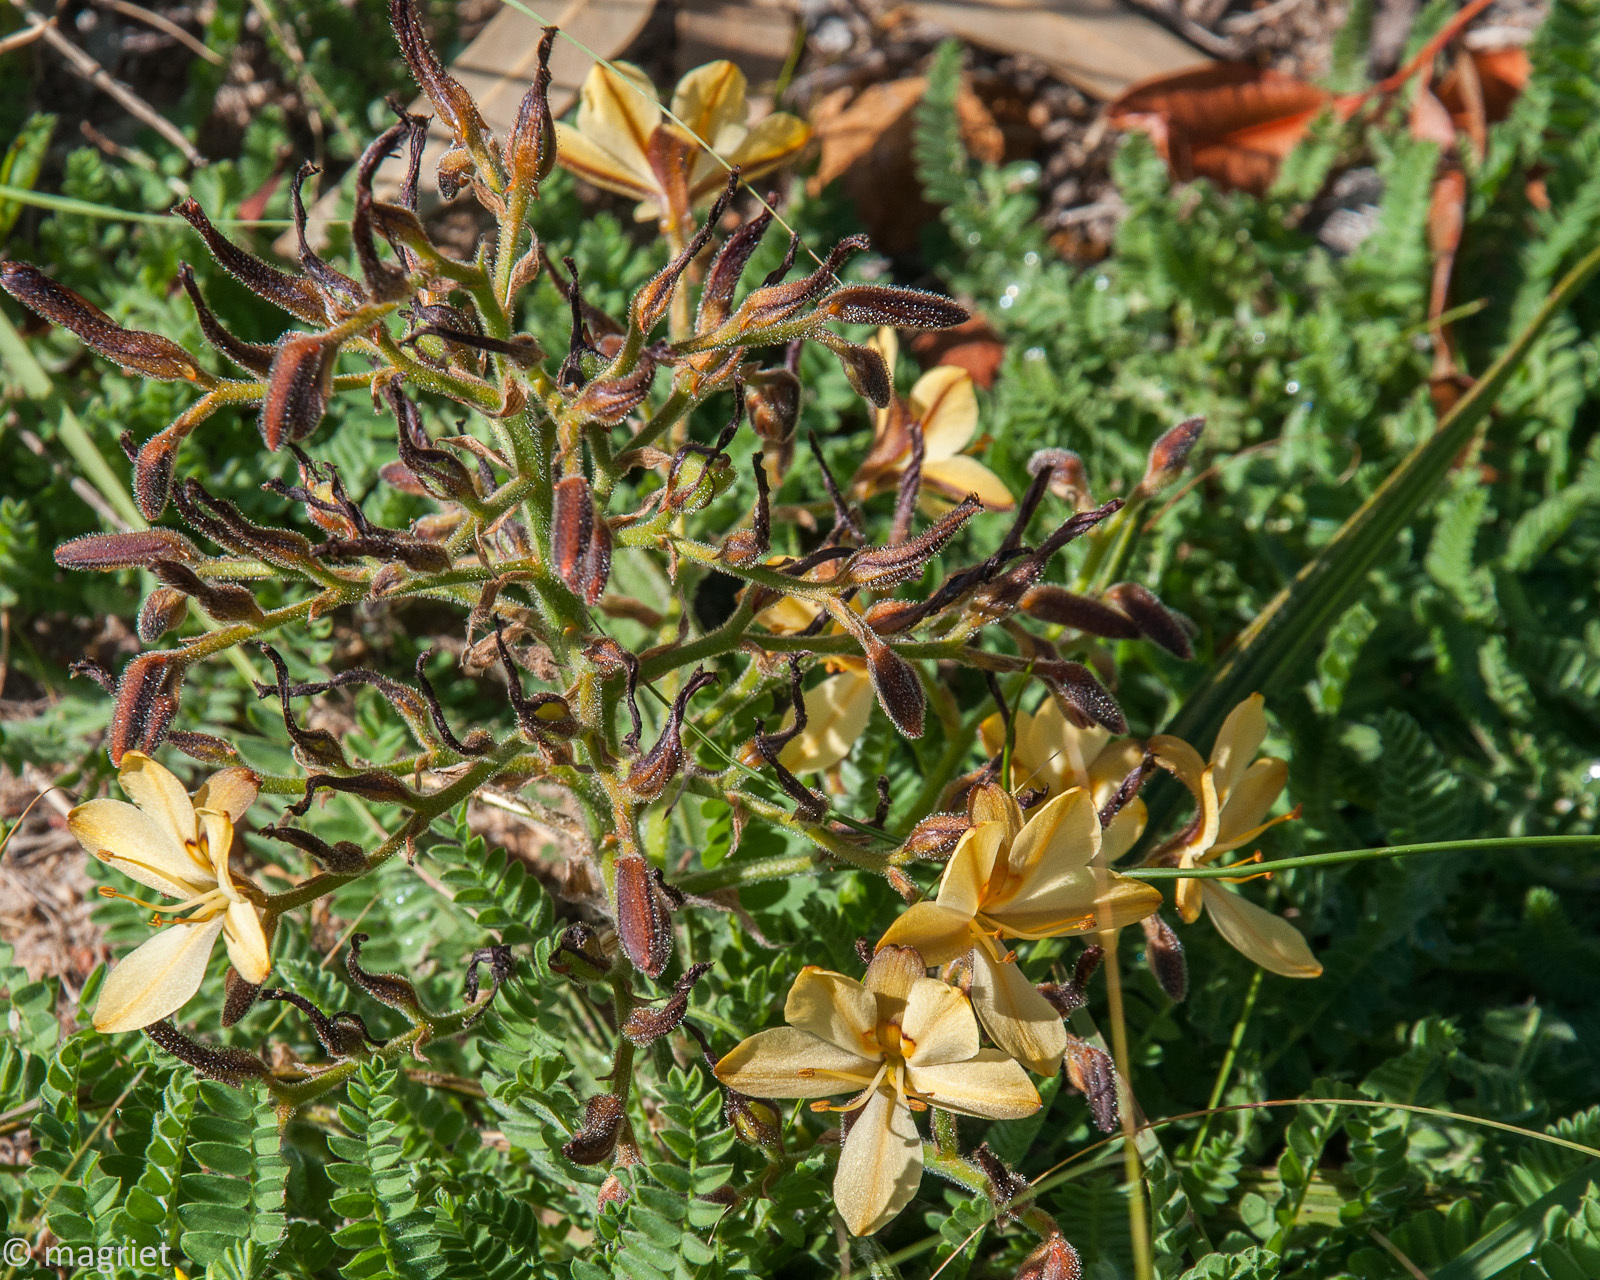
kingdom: Plantae
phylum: Tracheophyta
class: Liliopsida
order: Commelinales
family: Haemodoraceae
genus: Wachendorfia
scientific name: Wachendorfia paniculata
